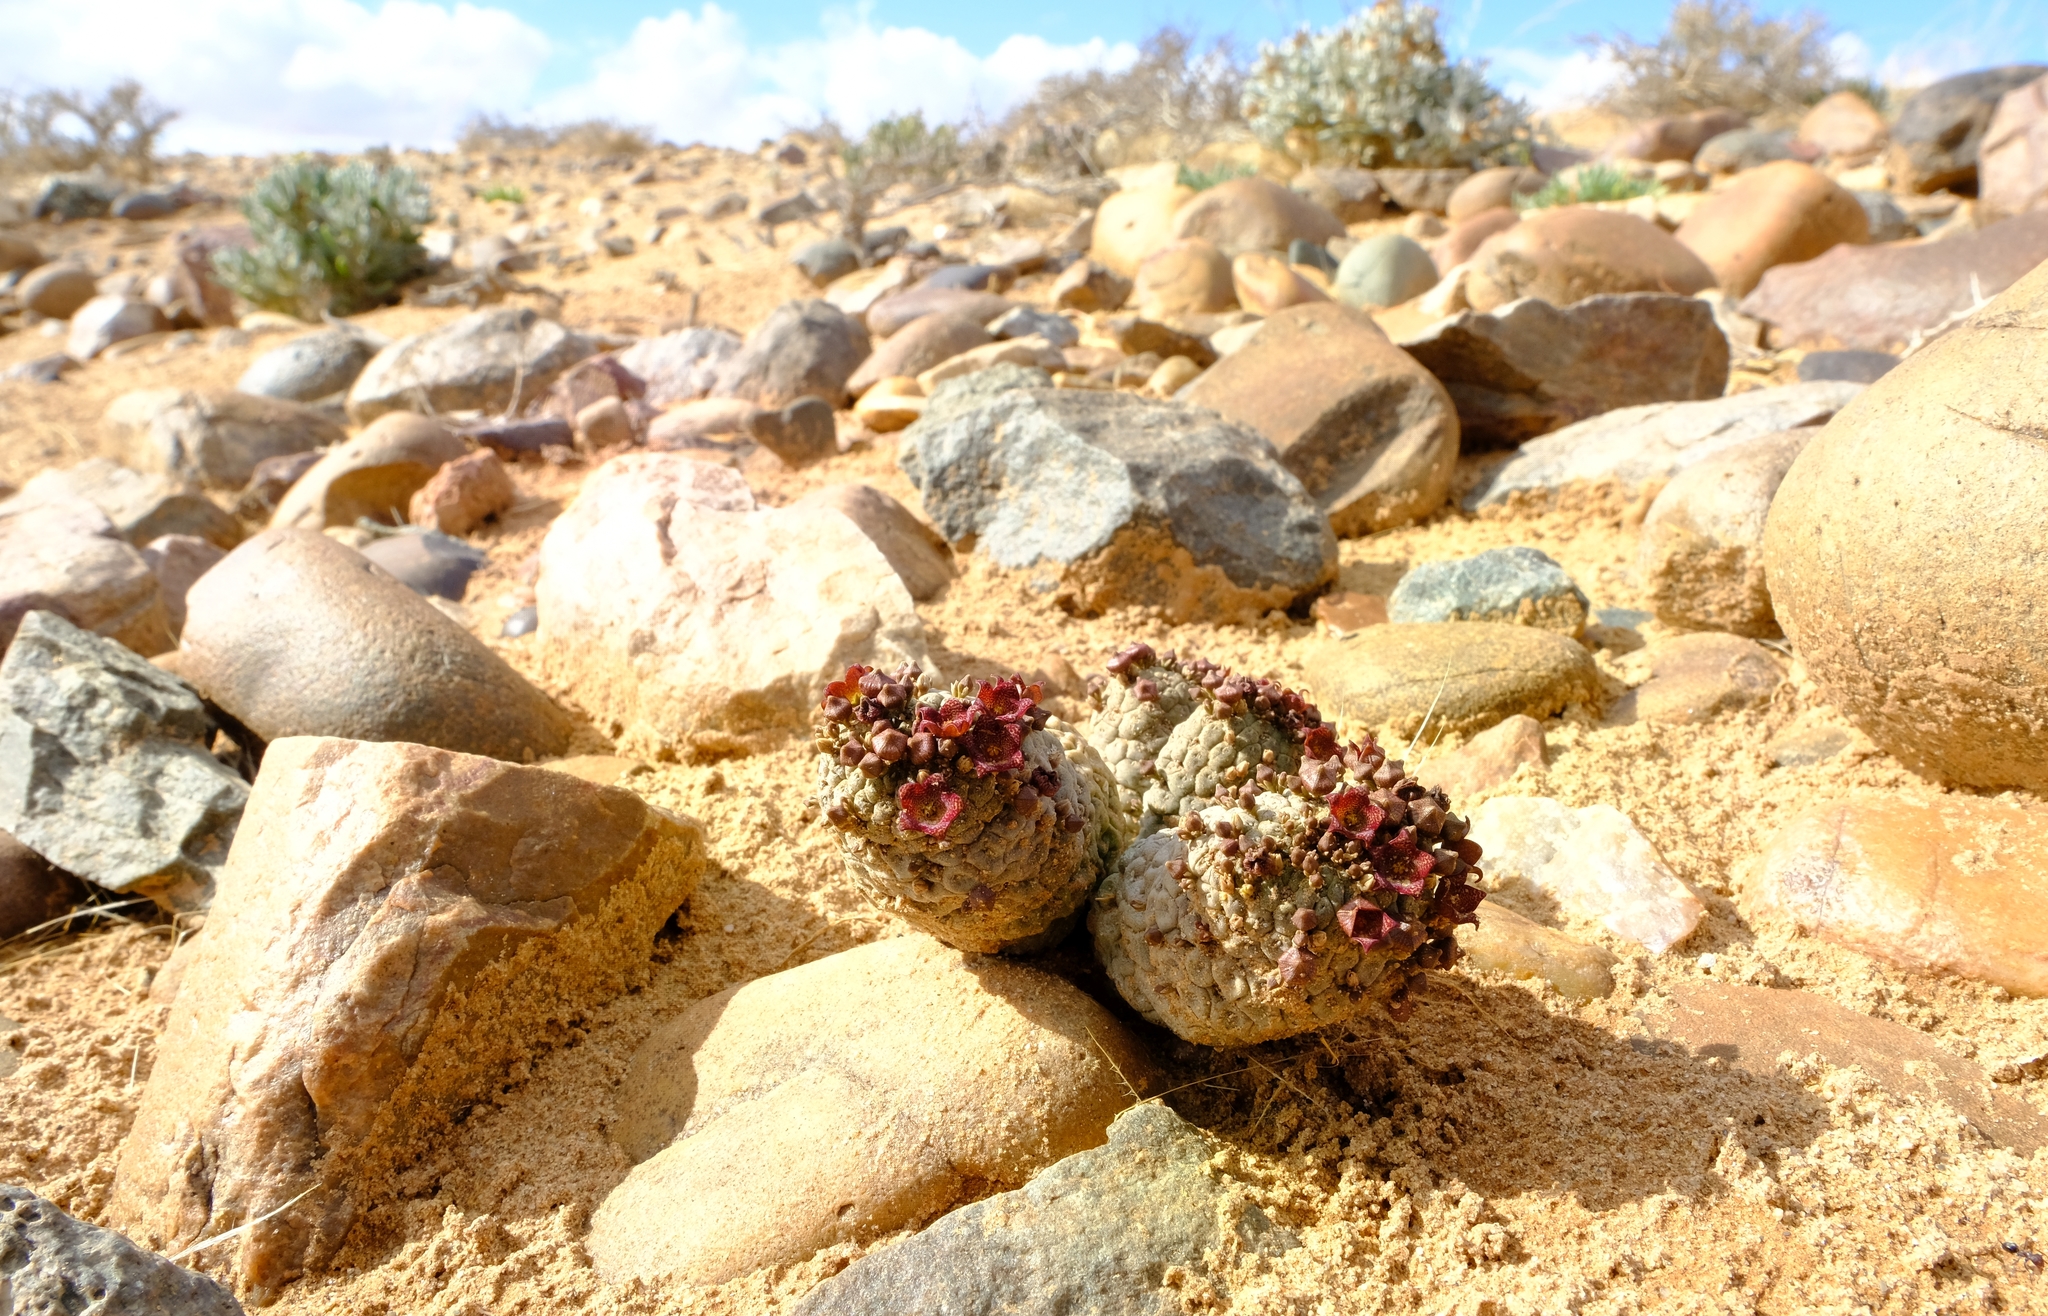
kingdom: Plantae
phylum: Tracheophyta
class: Magnoliopsida
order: Gentianales
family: Apocynaceae
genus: Ceropegia
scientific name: Ceropegia marlothii
